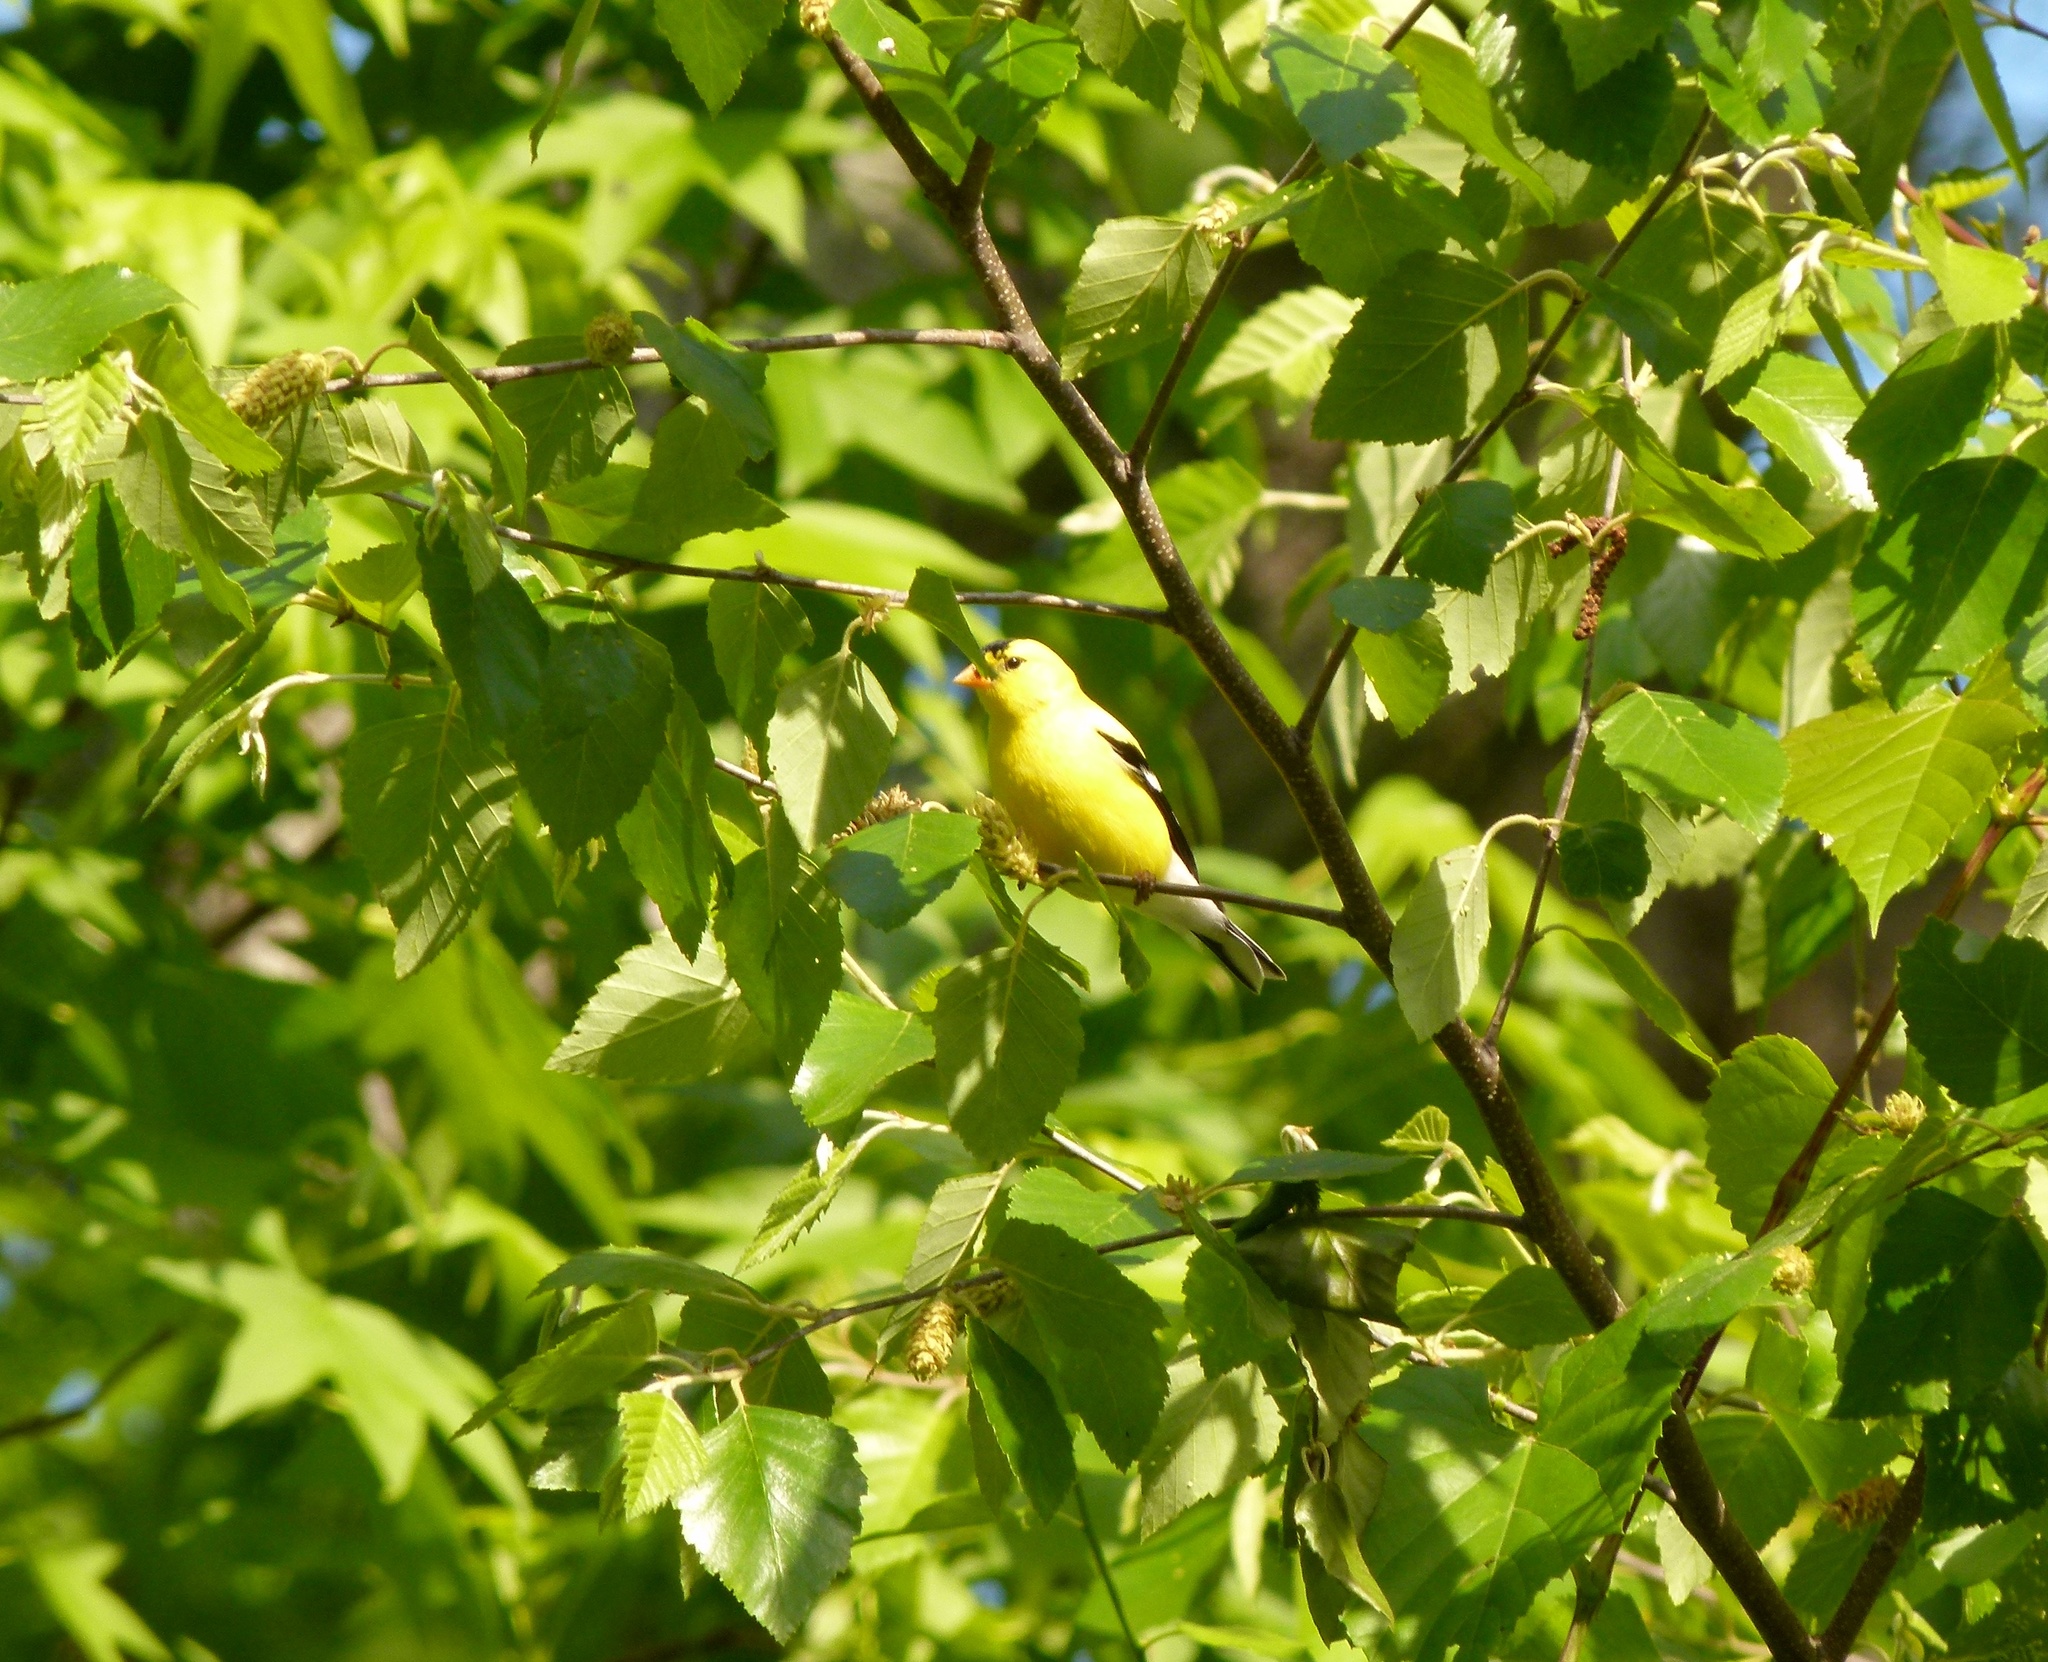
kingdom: Animalia
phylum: Chordata
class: Aves
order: Passeriformes
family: Fringillidae
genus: Spinus
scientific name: Spinus tristis
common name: American goldfinch
